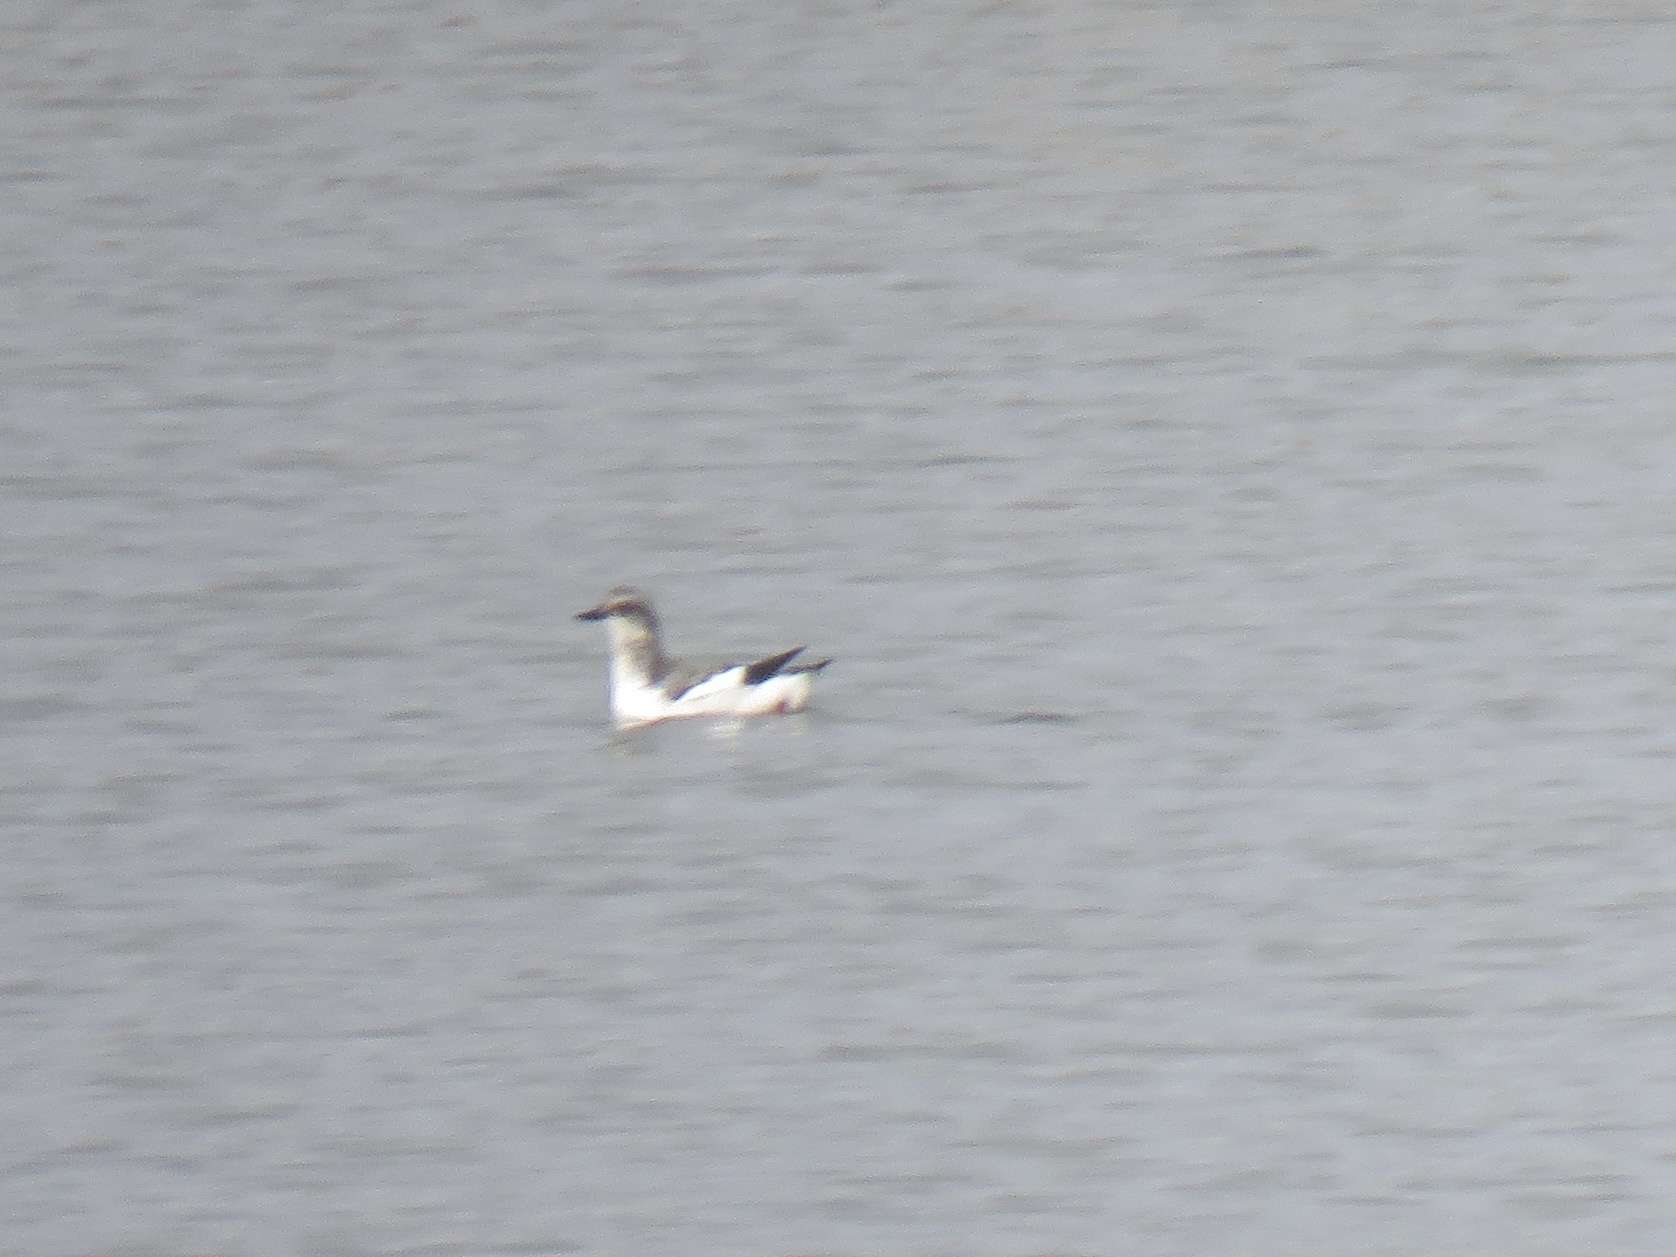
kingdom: Animalia
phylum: Chordata
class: Aves
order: Charadriiformes
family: Alcidae
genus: Cepphus
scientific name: Cepphus columba
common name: Pigeon guillemot
